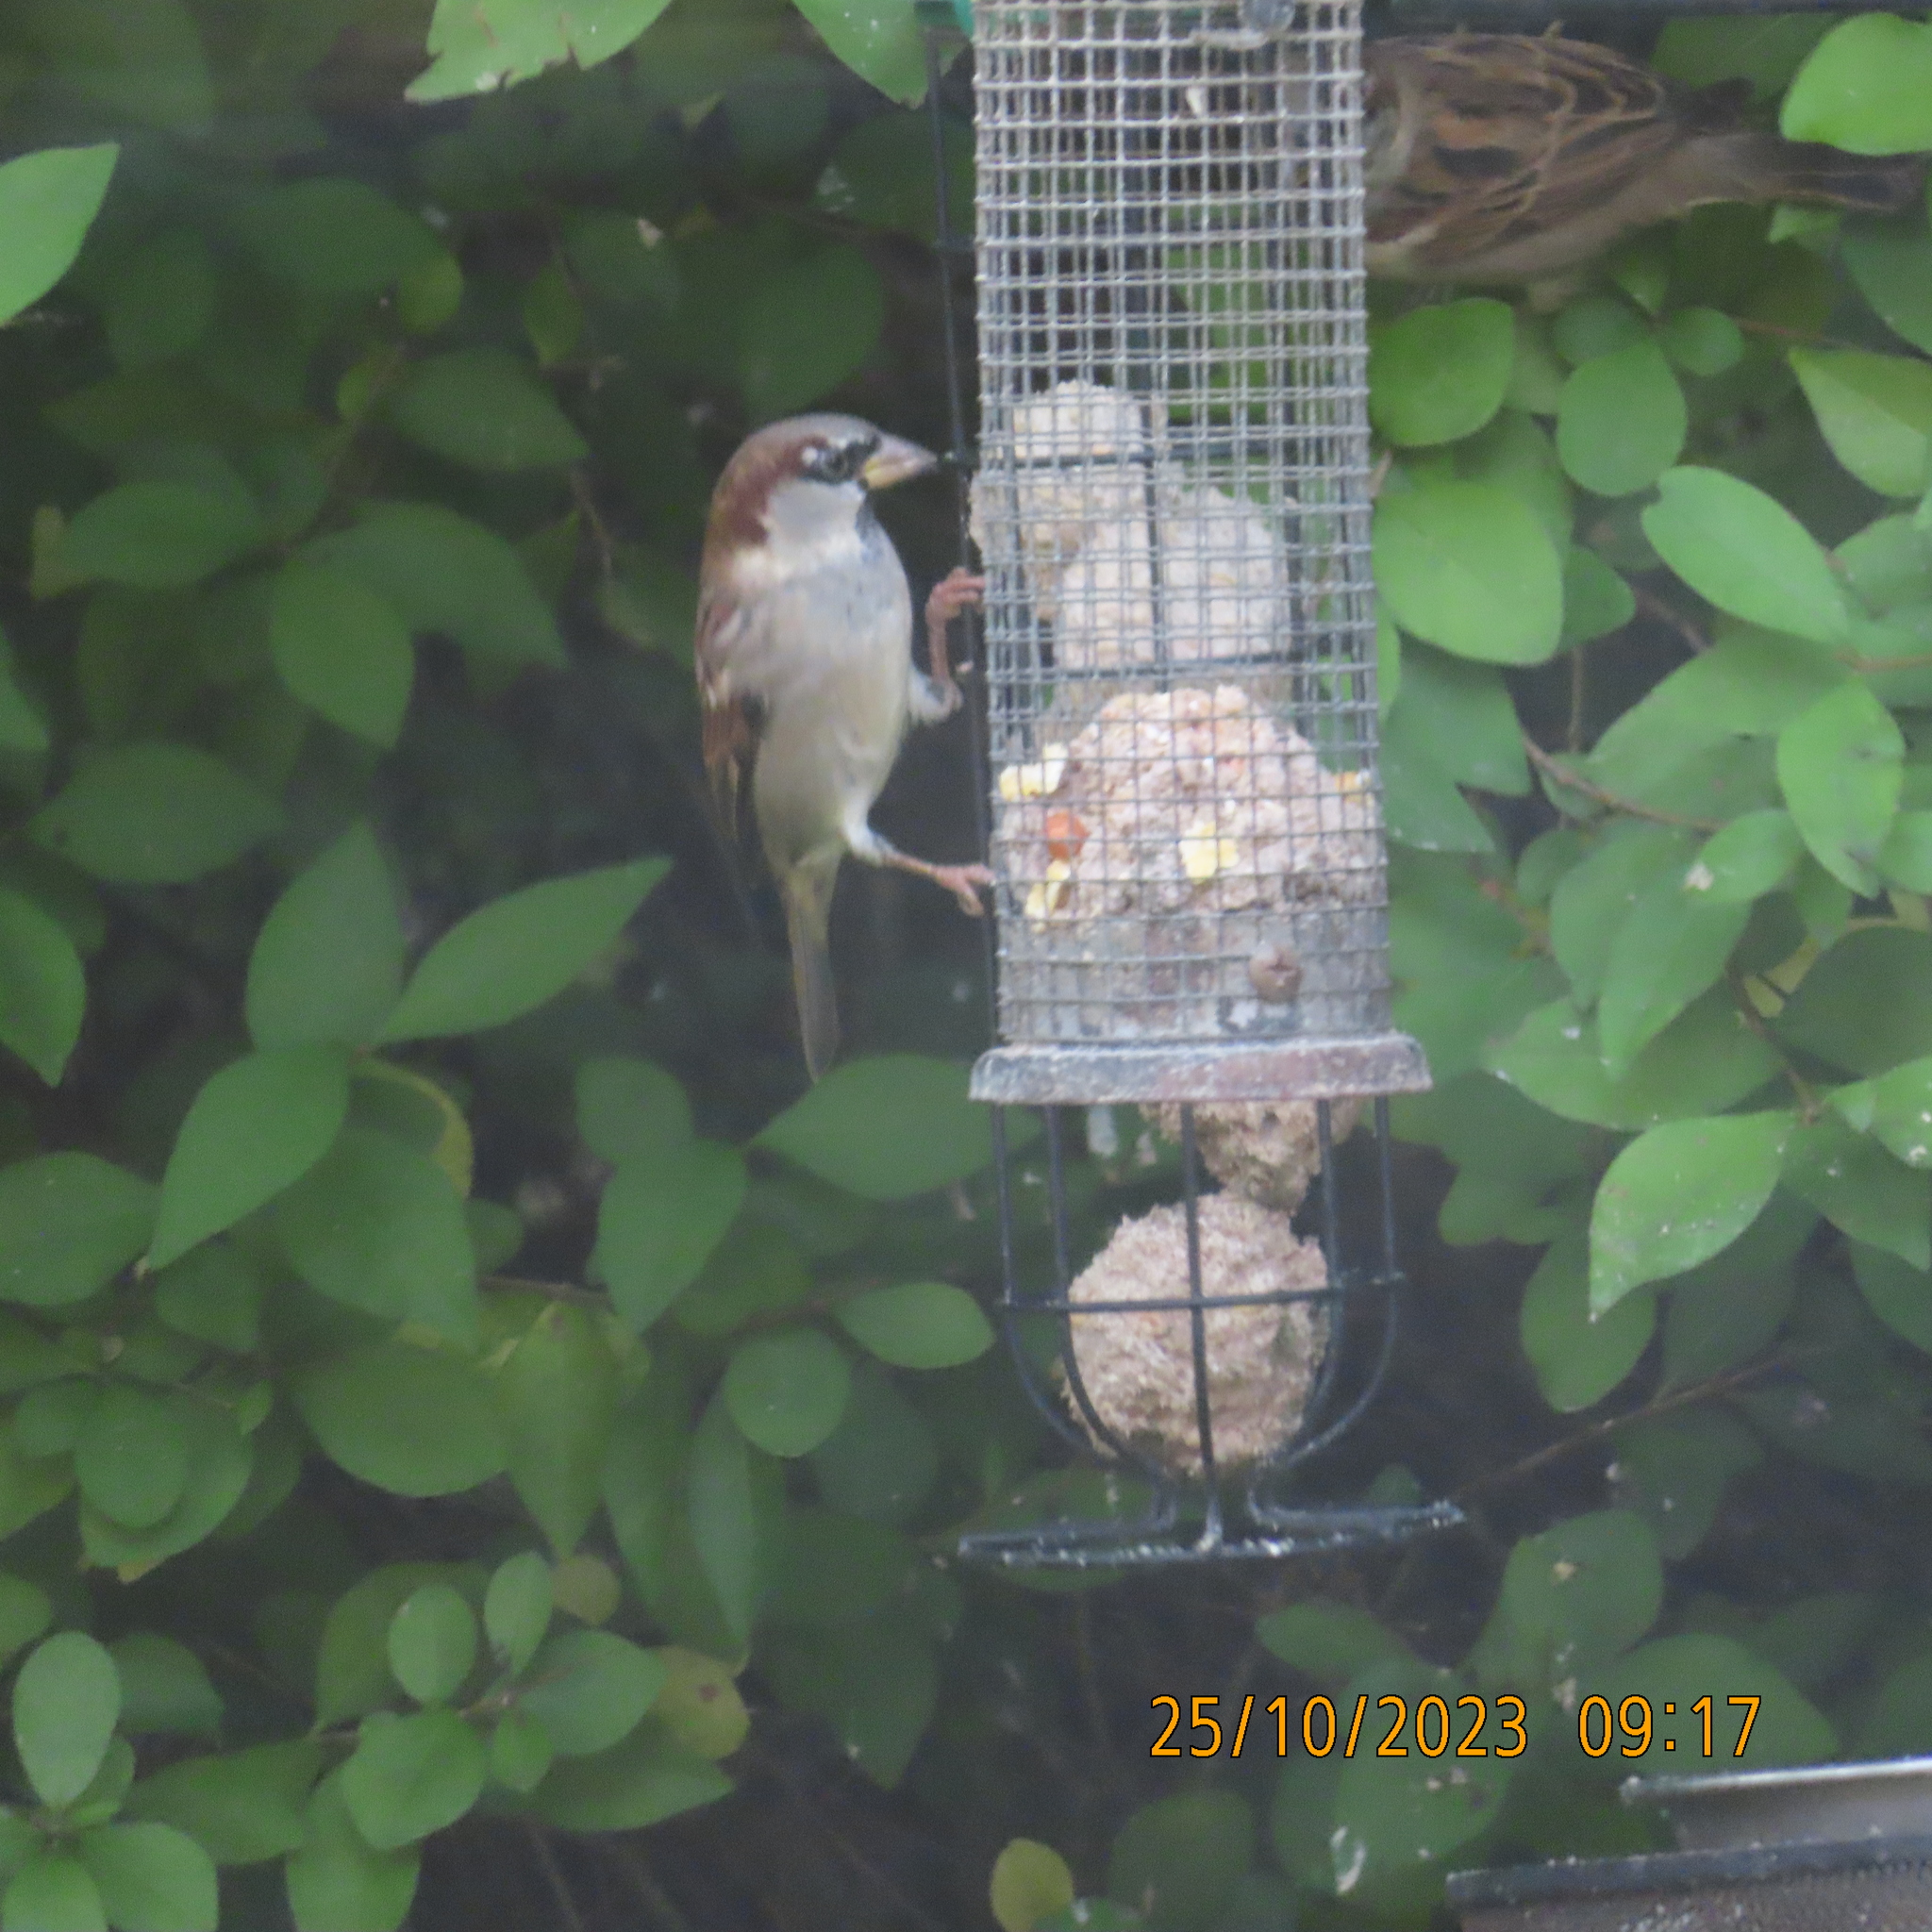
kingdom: Animalia
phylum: Chordata
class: Aves
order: Passeriformes
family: Passeridae
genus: Passer
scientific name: Passer domesticus
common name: House sparrow
